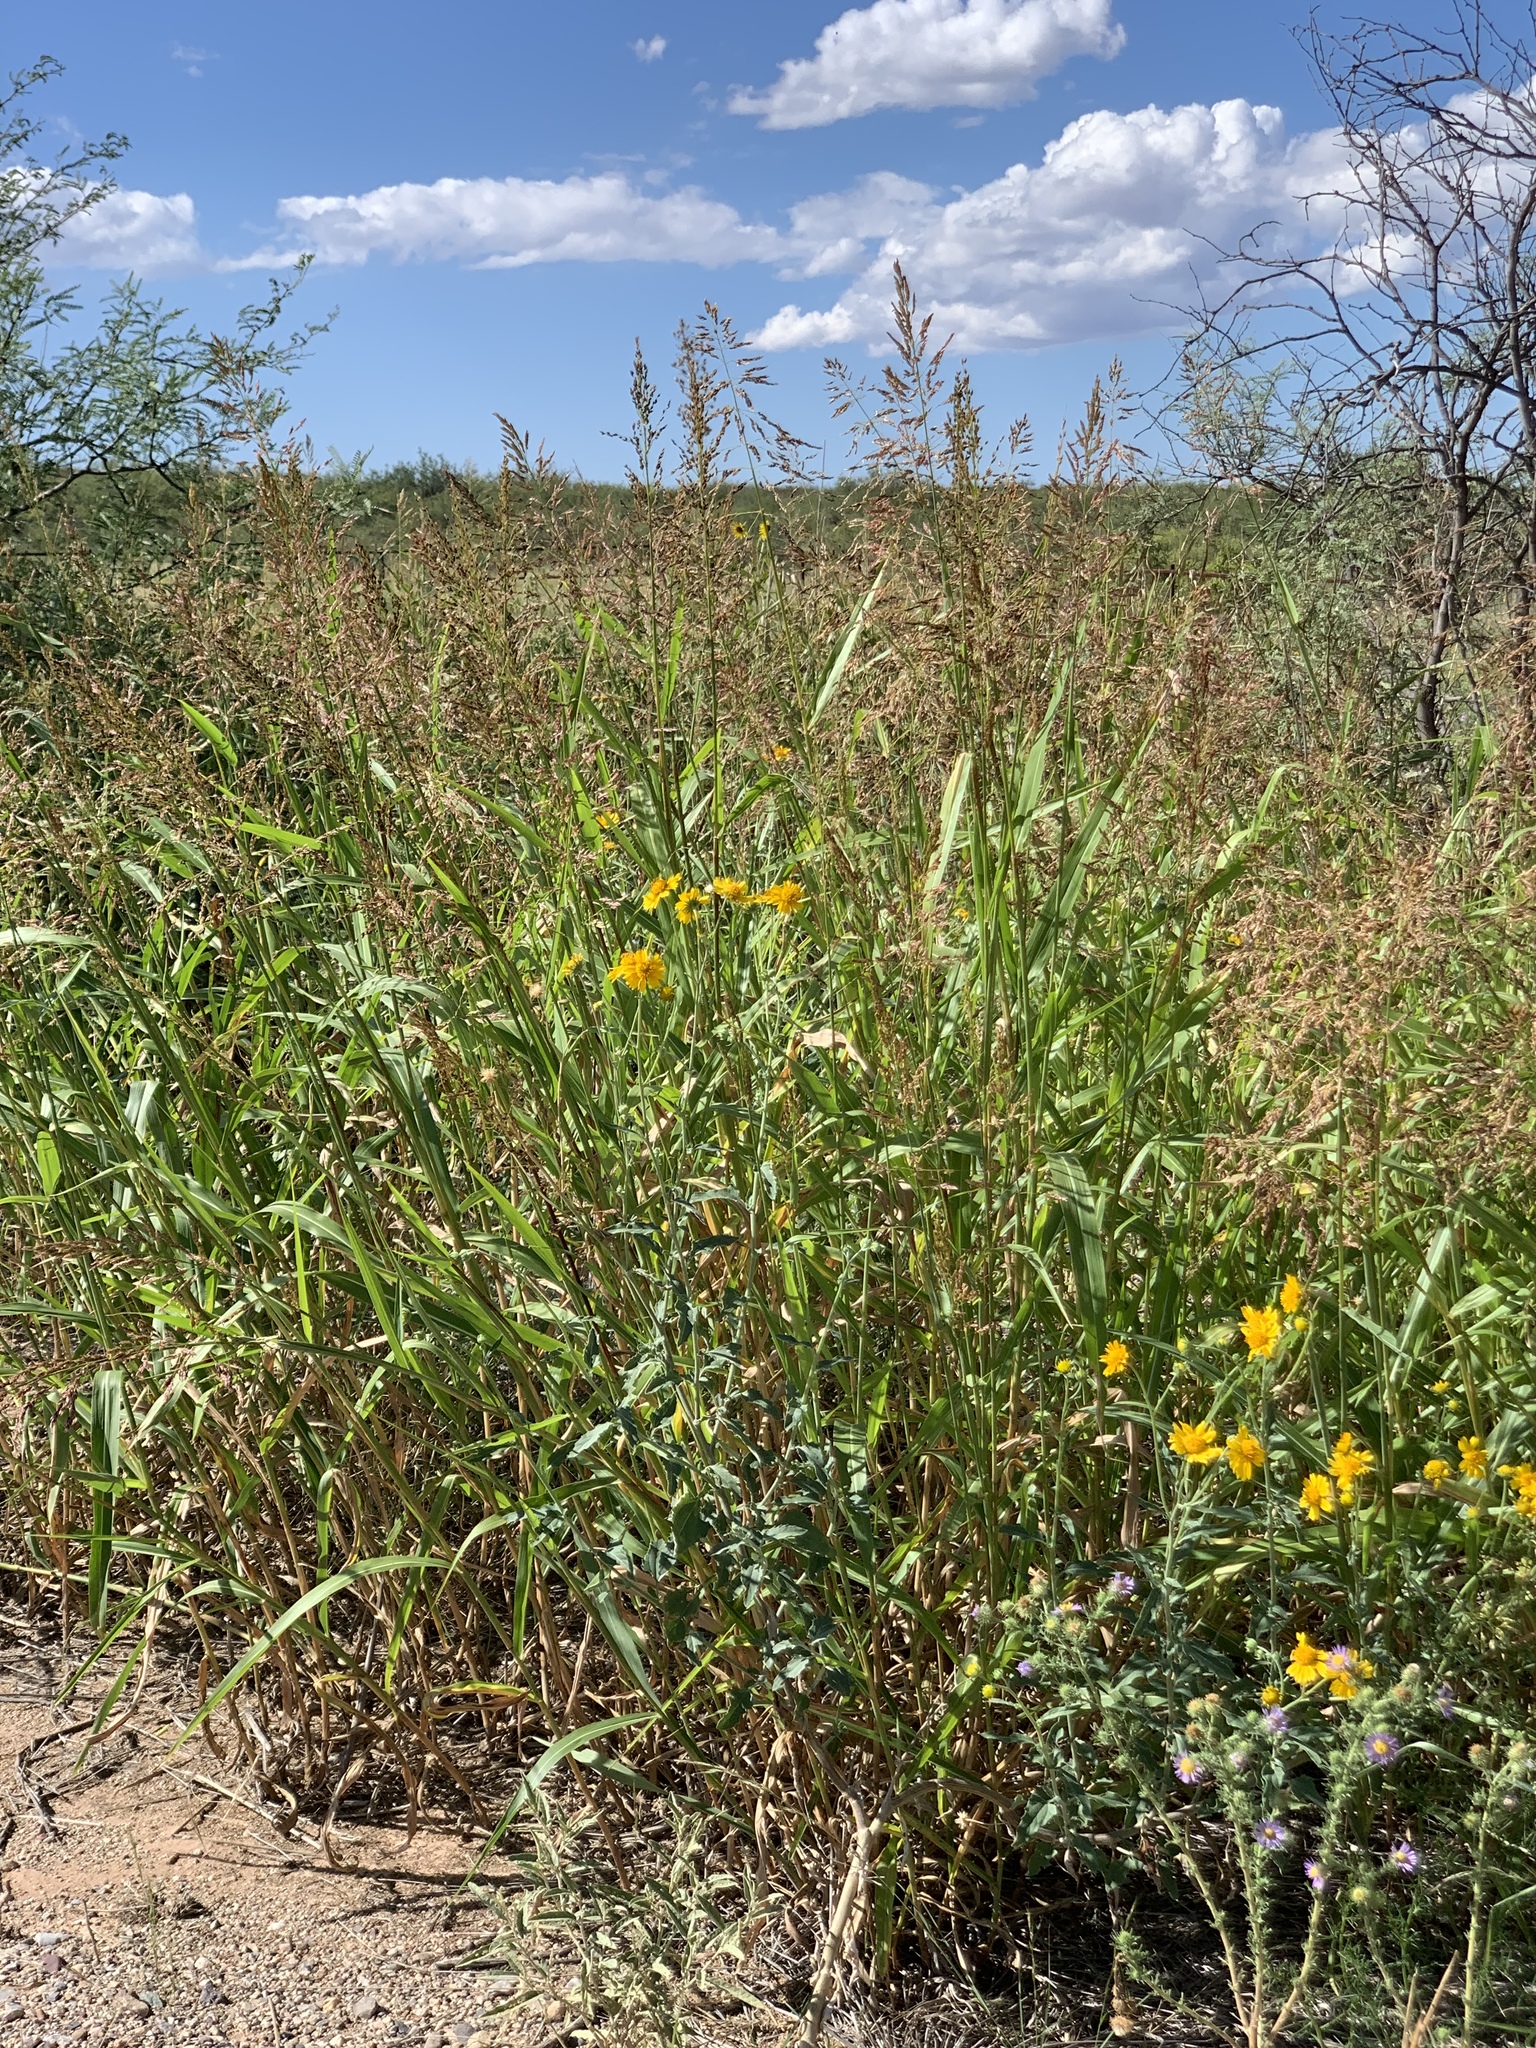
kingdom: Plantae
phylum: Tracheophyta
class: Liliopsida
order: Poales
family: Poaceae
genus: Sorghum
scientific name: Sorghum halepense
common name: Johnson-grass
